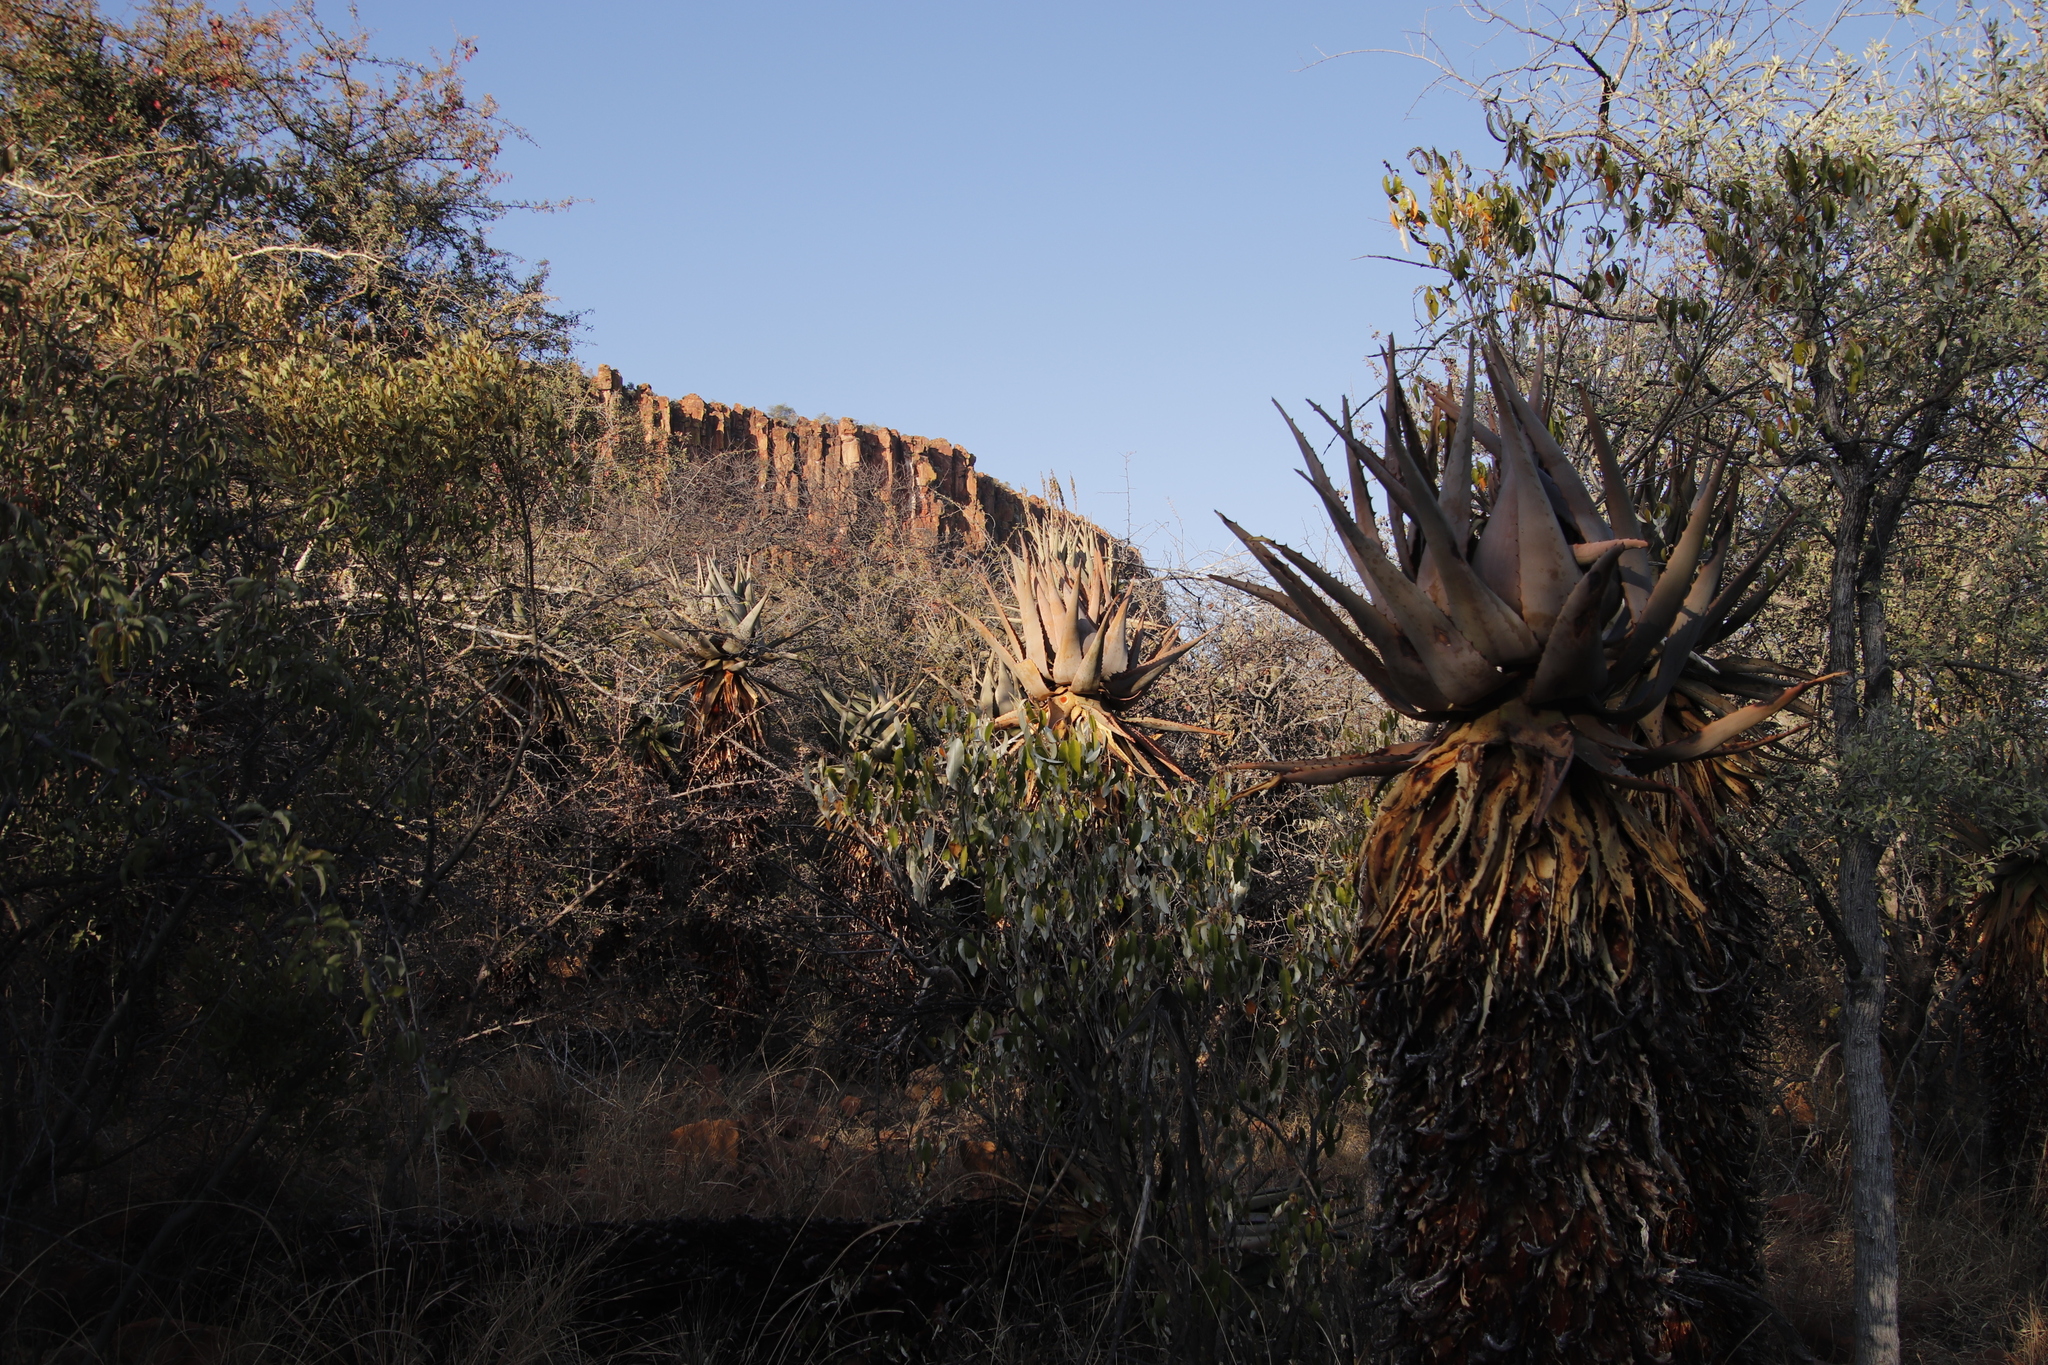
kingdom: Plantae
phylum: Tracheophyta
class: Liliopsida
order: Asparagales
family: Asphodelaceae
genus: Aloe
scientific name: Aloe littoralis
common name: Luanda tree aloe
